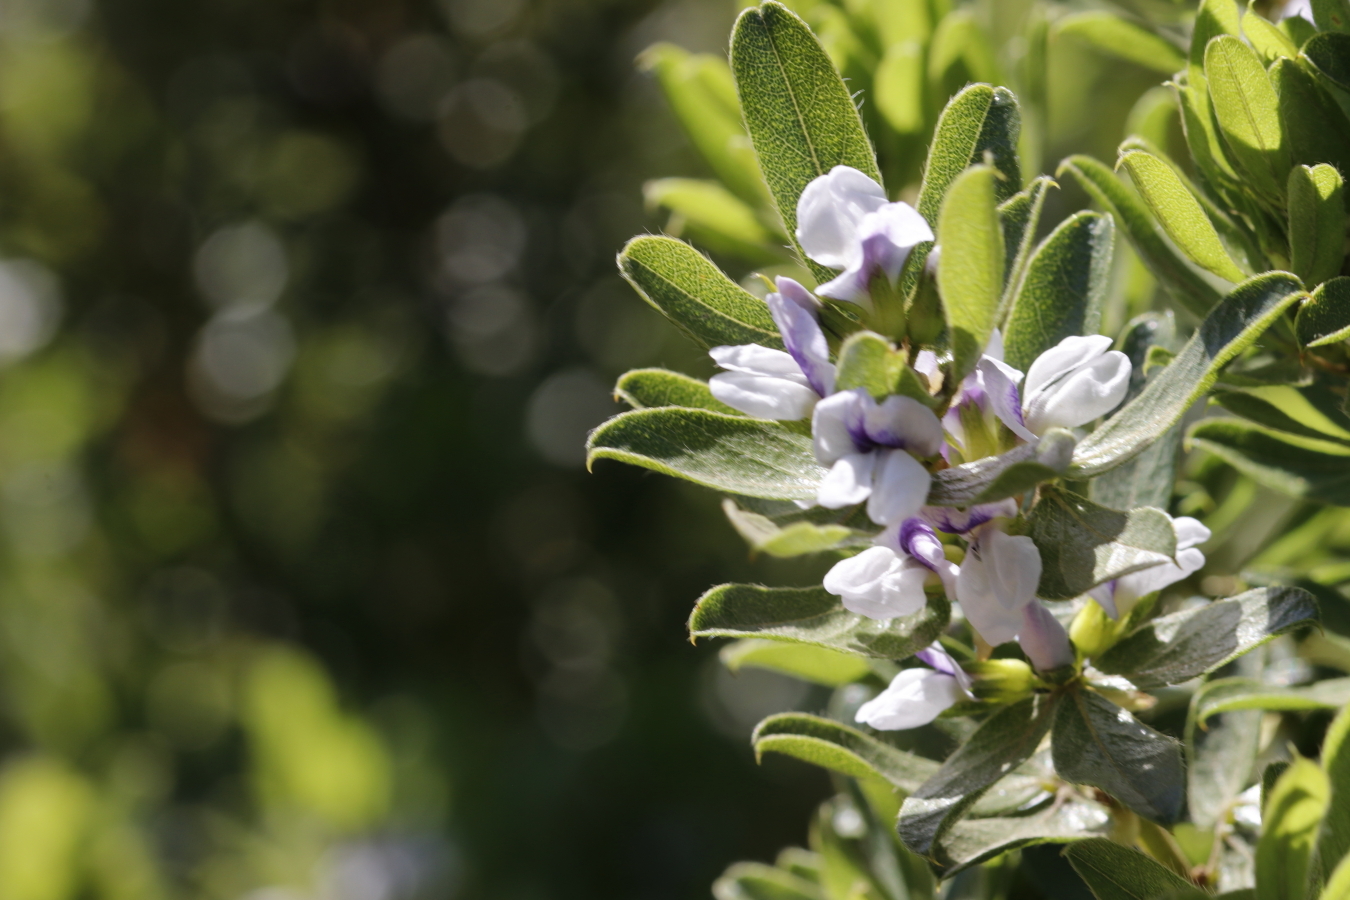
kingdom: Plantae
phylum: Tracheophyta
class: Magnoliopsida
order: Fabales
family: Fabaceae
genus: Psoralea
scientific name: Psoralea
